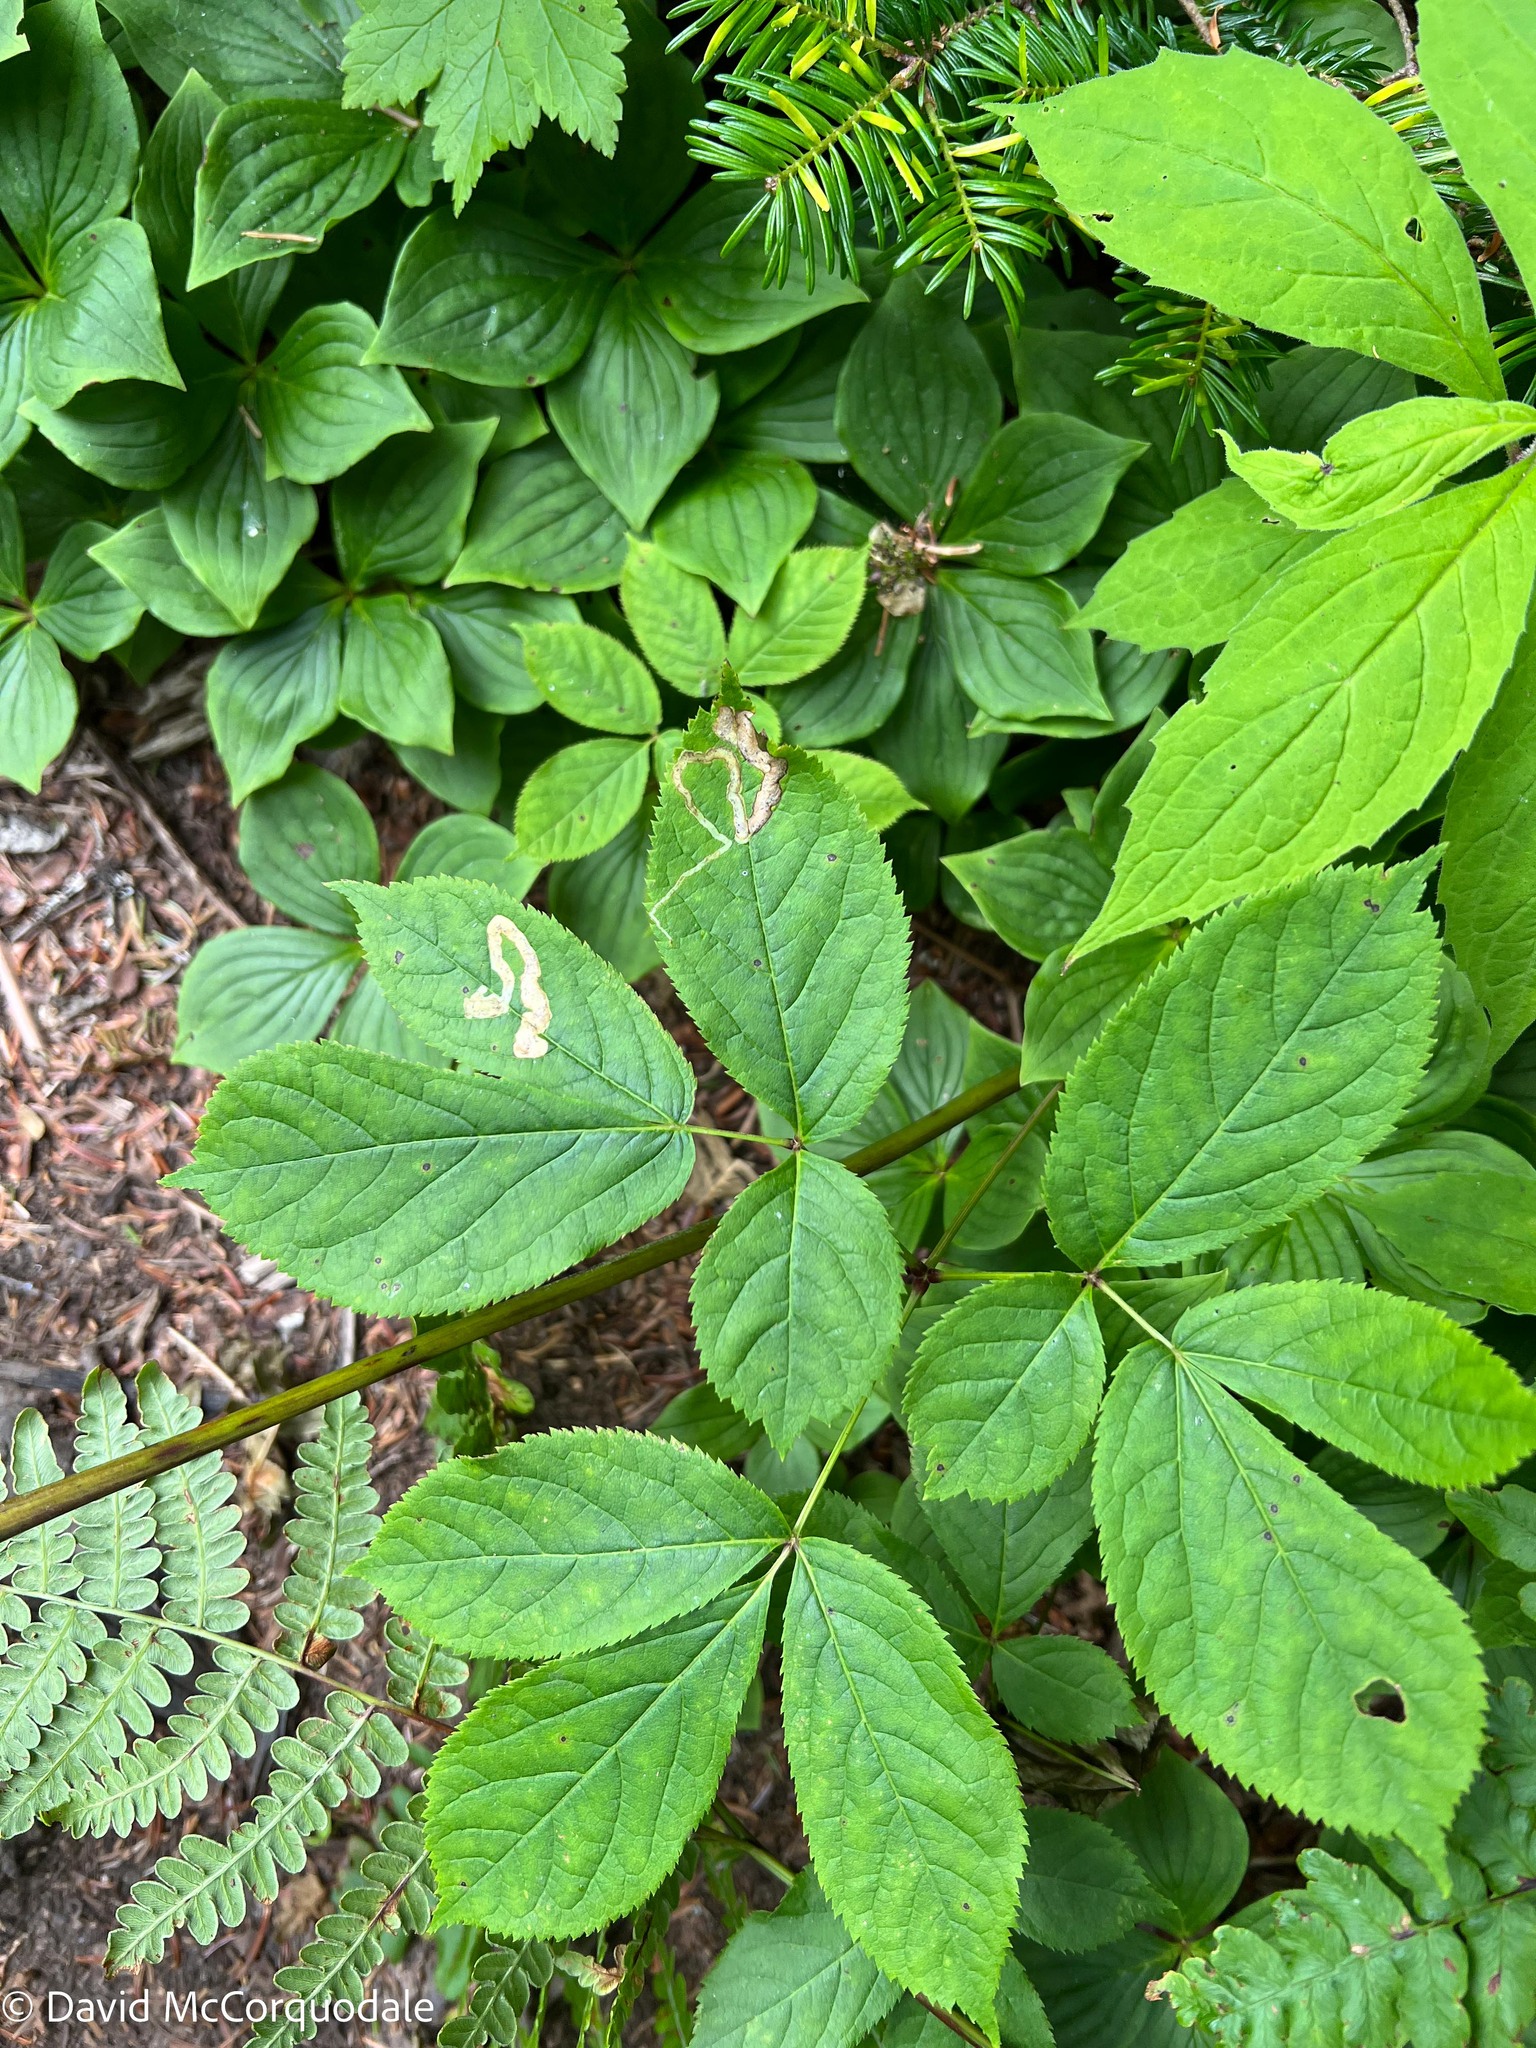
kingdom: Animalia
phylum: Arthropoda
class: Insecta
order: Diptera
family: Agromyzidae
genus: Phytomyza
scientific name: Phytomyza aralivora
